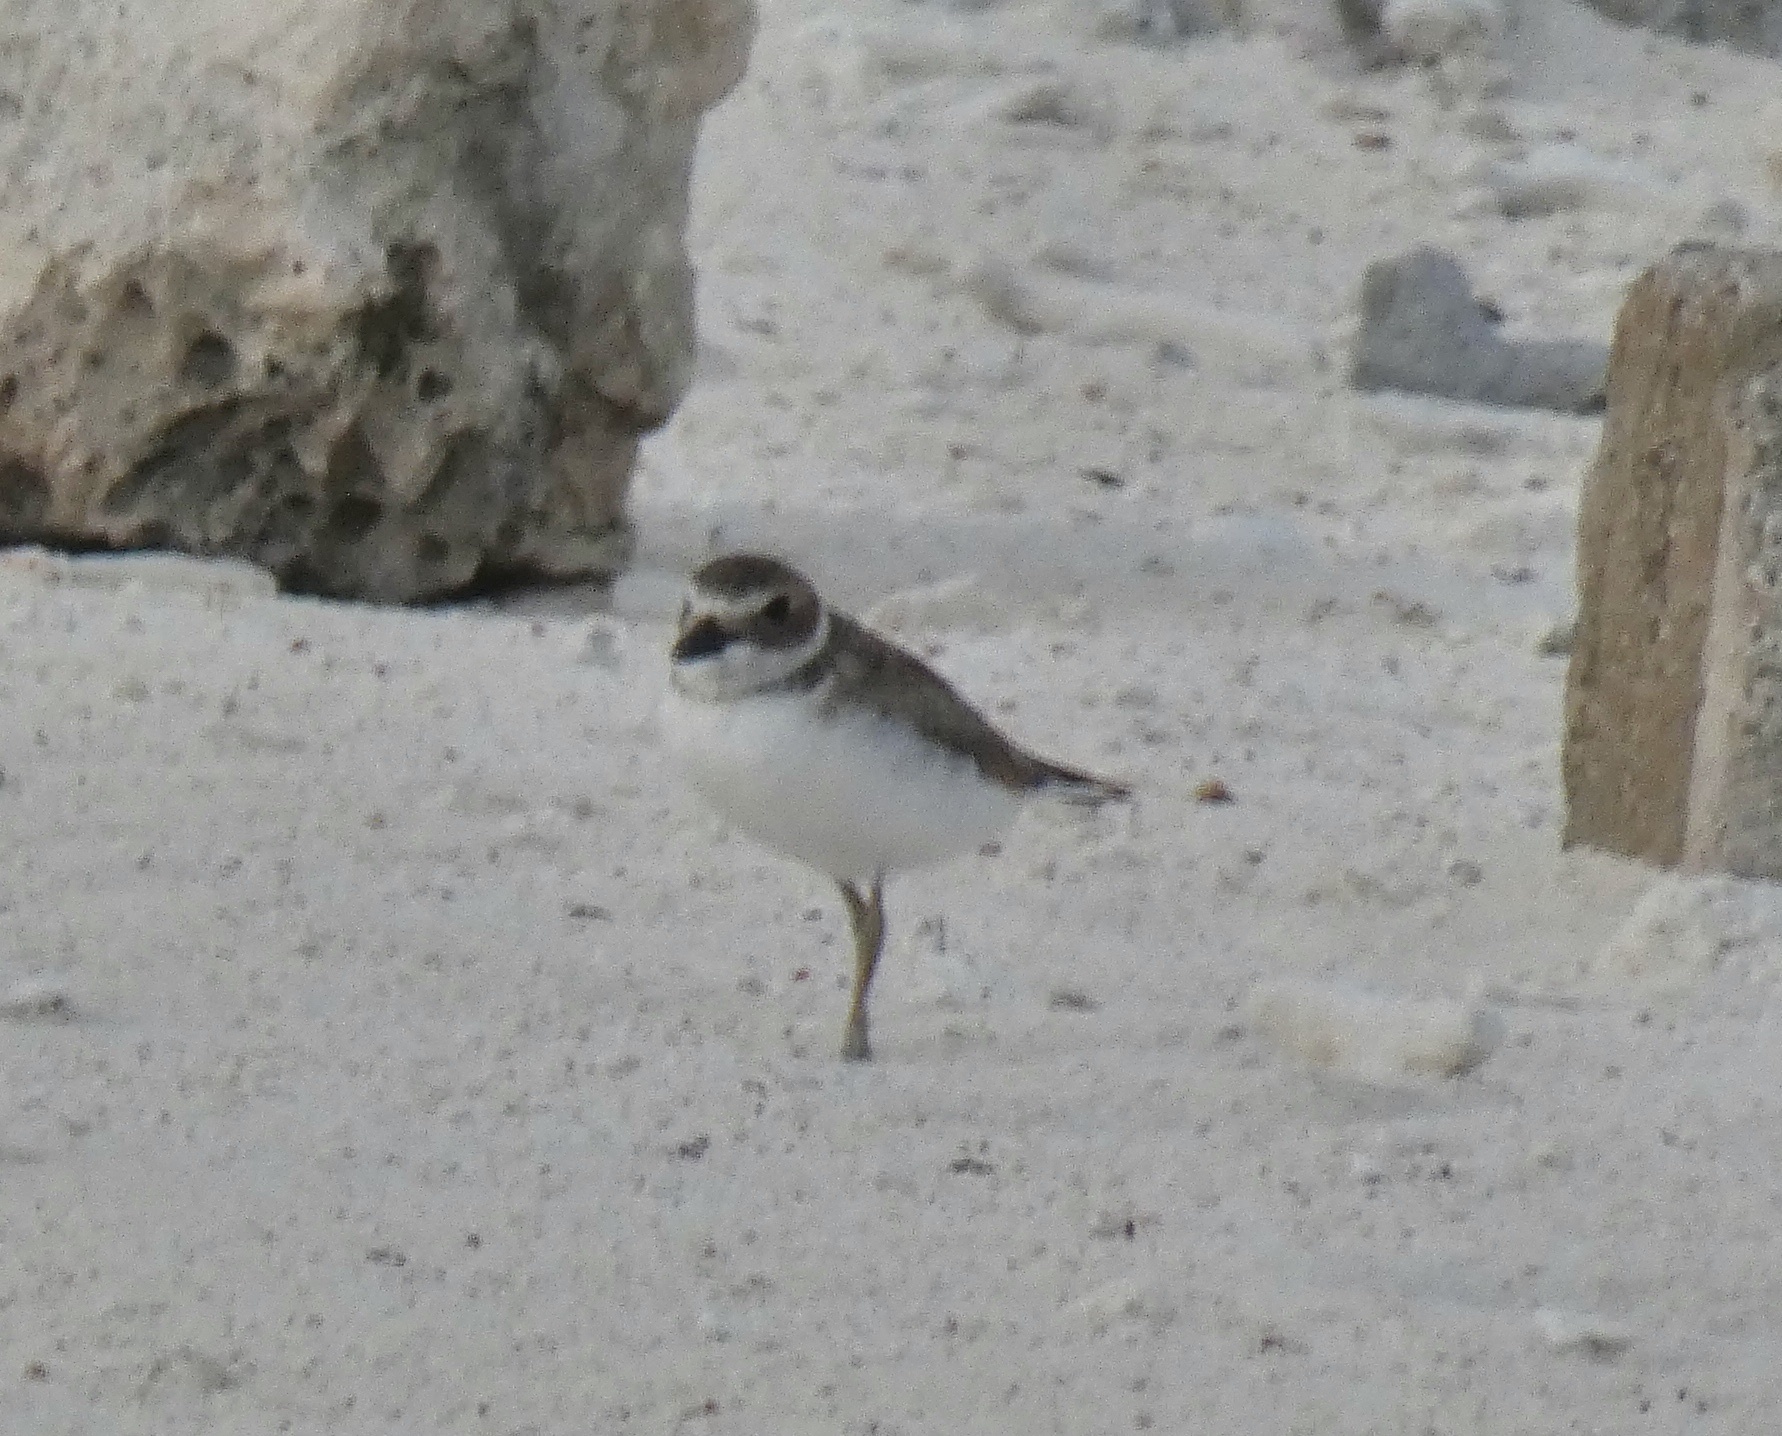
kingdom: Animalia
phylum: Chordata
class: Aves
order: Charadriiformes
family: Charadriidae
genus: Anarhynchus
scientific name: Anarhynchus
